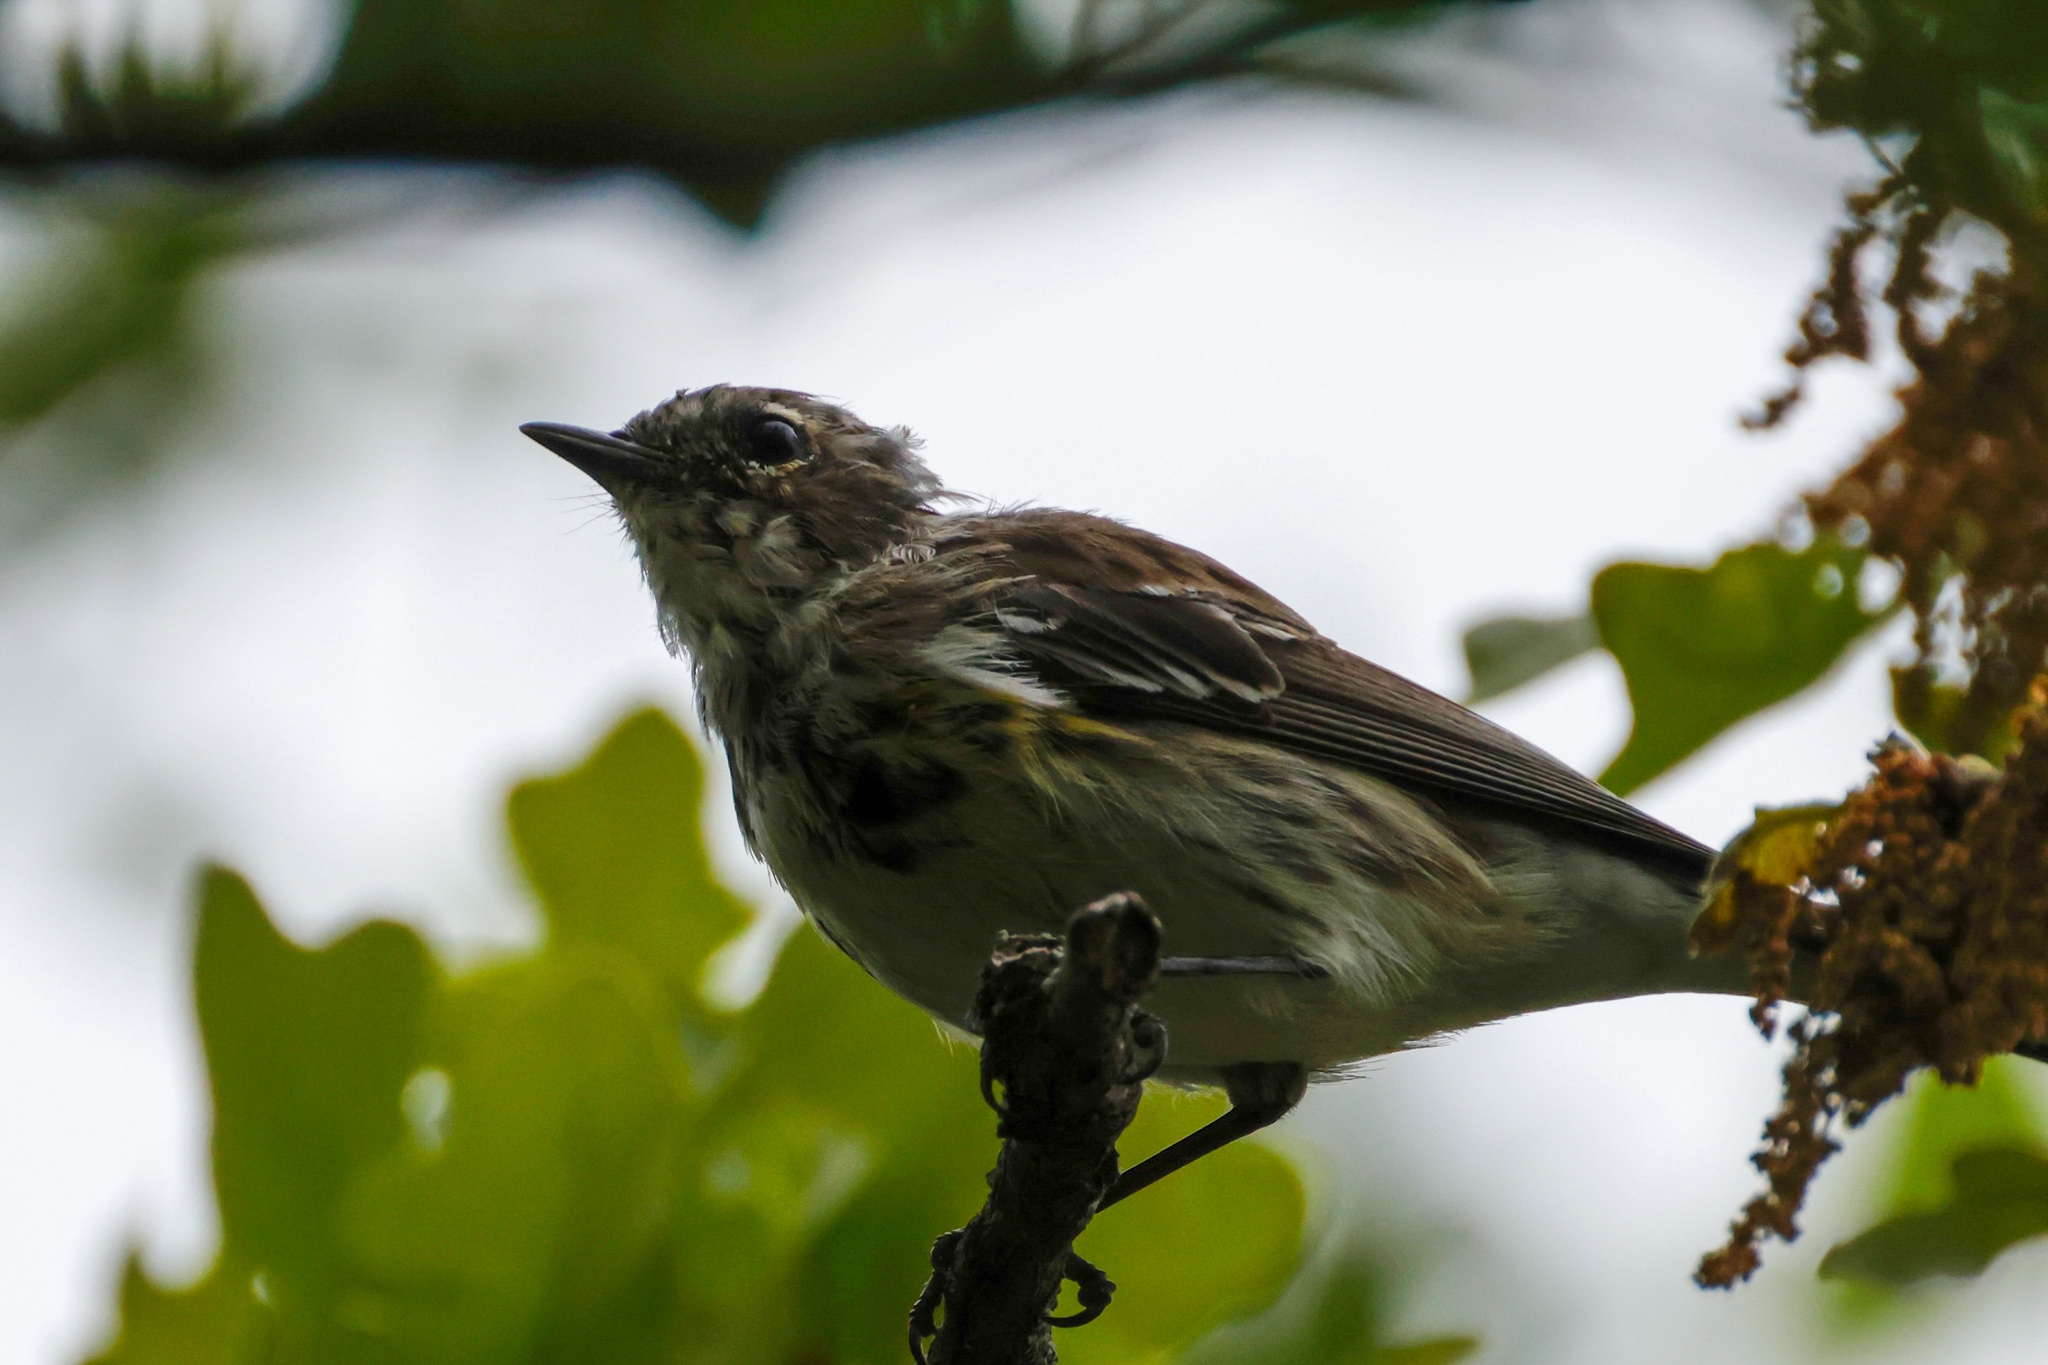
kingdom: Animalia
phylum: Chordata
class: Aves
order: Passeriformes
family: Parulidae
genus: Setophaga
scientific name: Setophaga coronata
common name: Myrtle warbler
